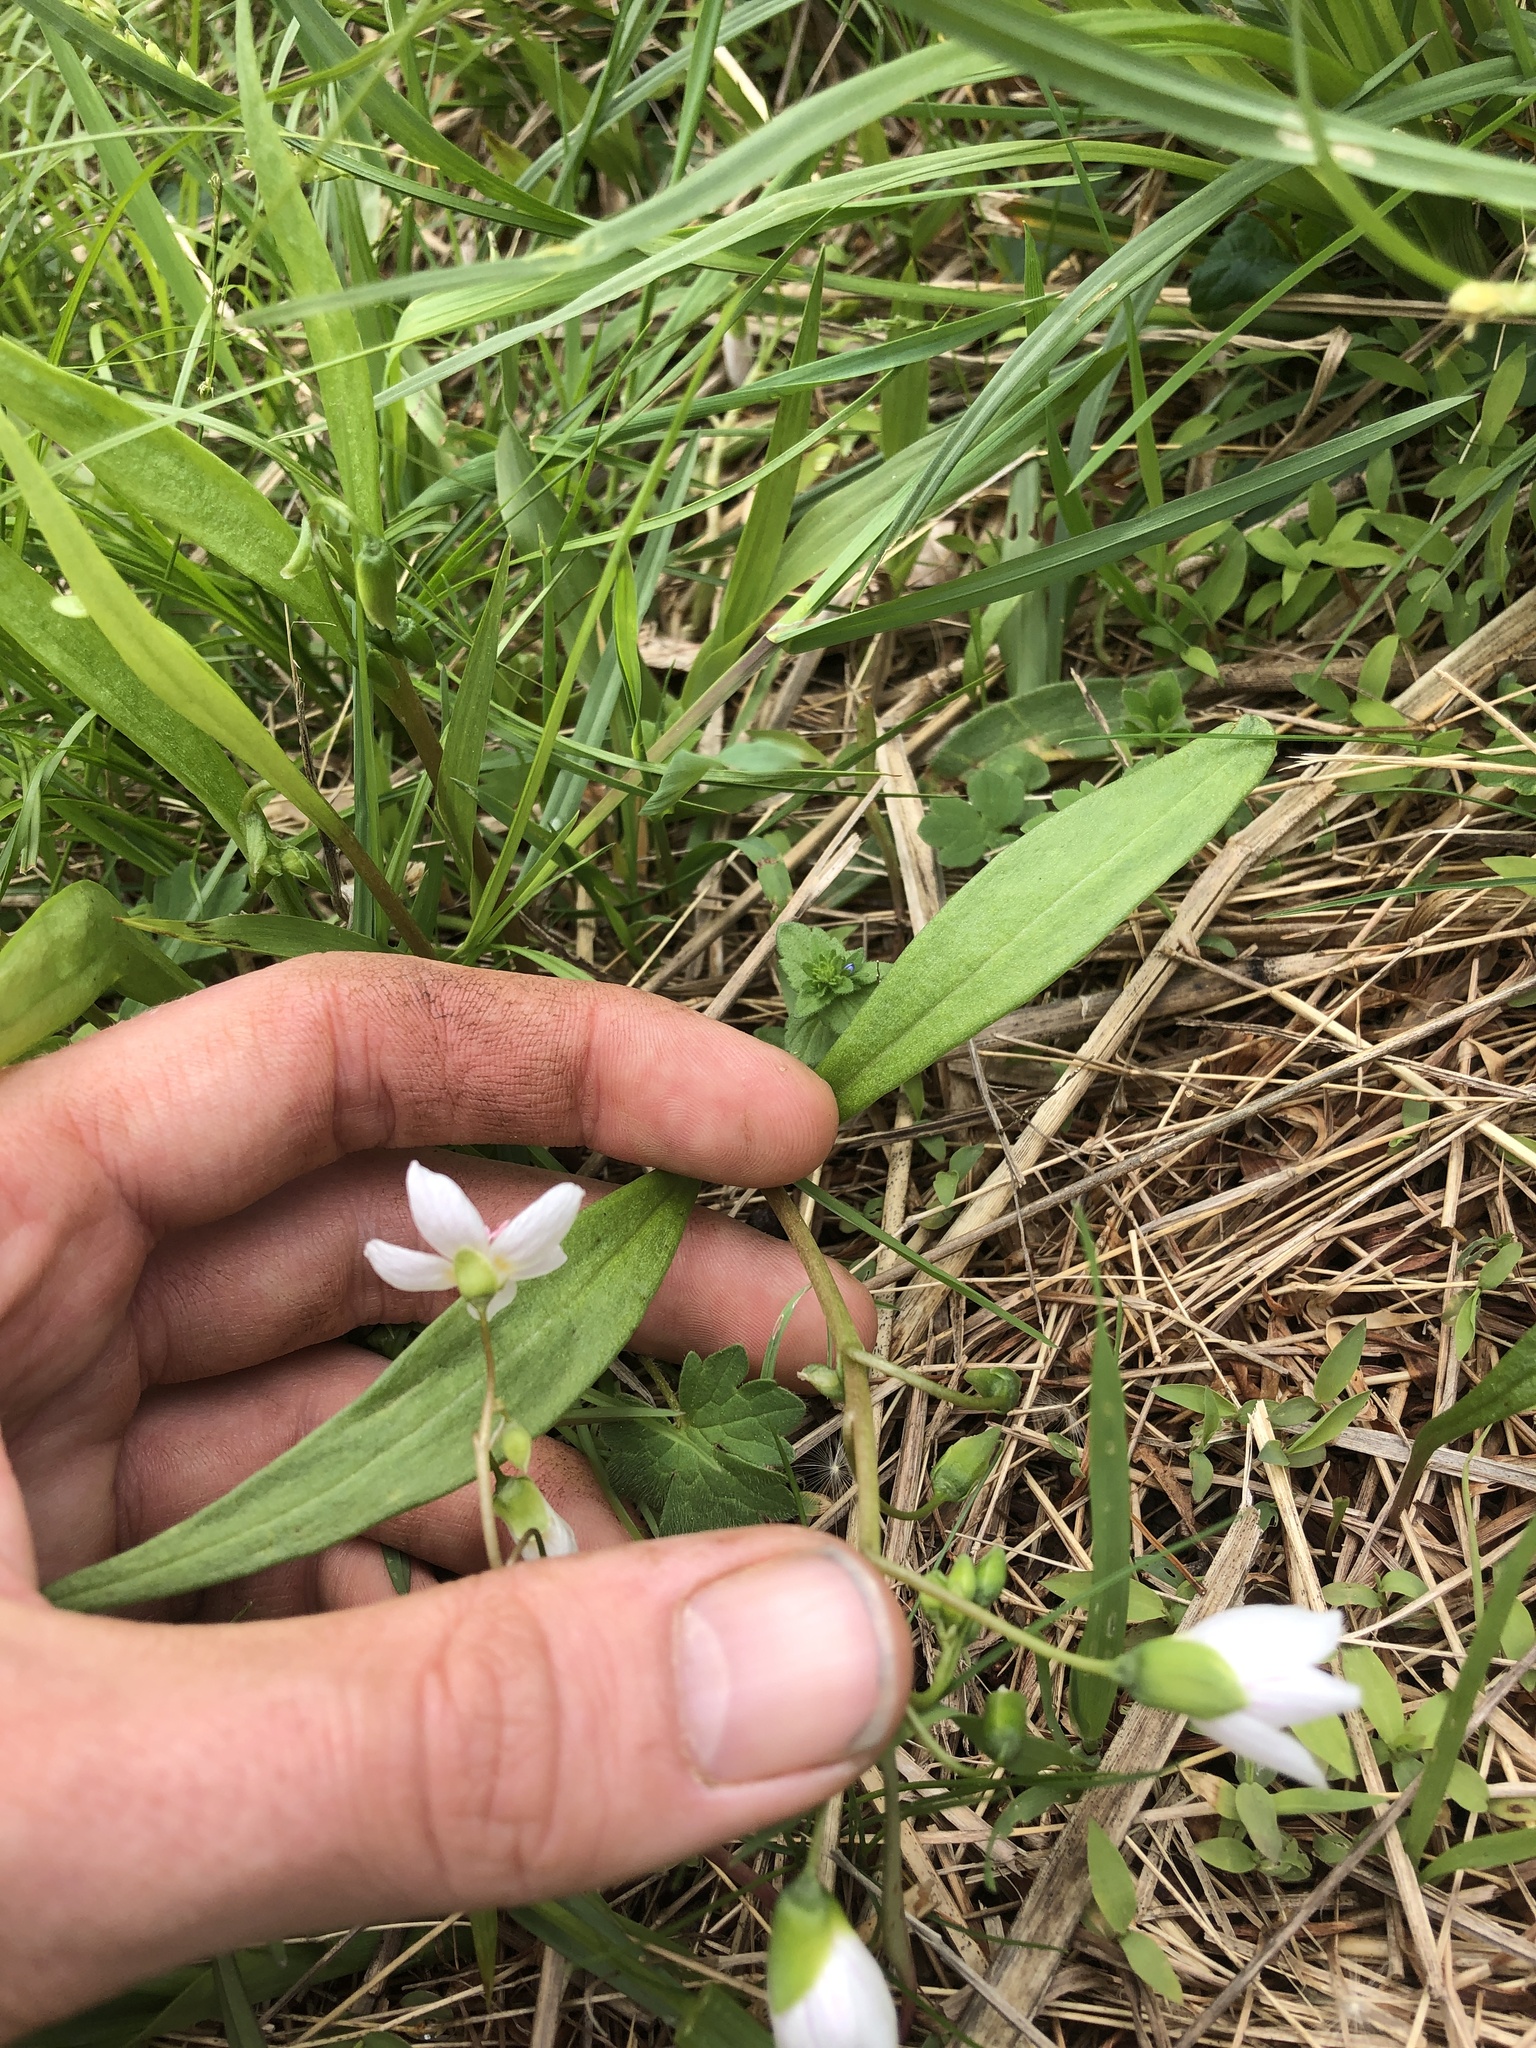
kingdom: Plantae
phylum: Tracheophyta
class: Magnoliopsida
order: Caryophyllales
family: Montiaceae
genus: Claytonia
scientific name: Claytonia virginica
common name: Virginia springbeauty
